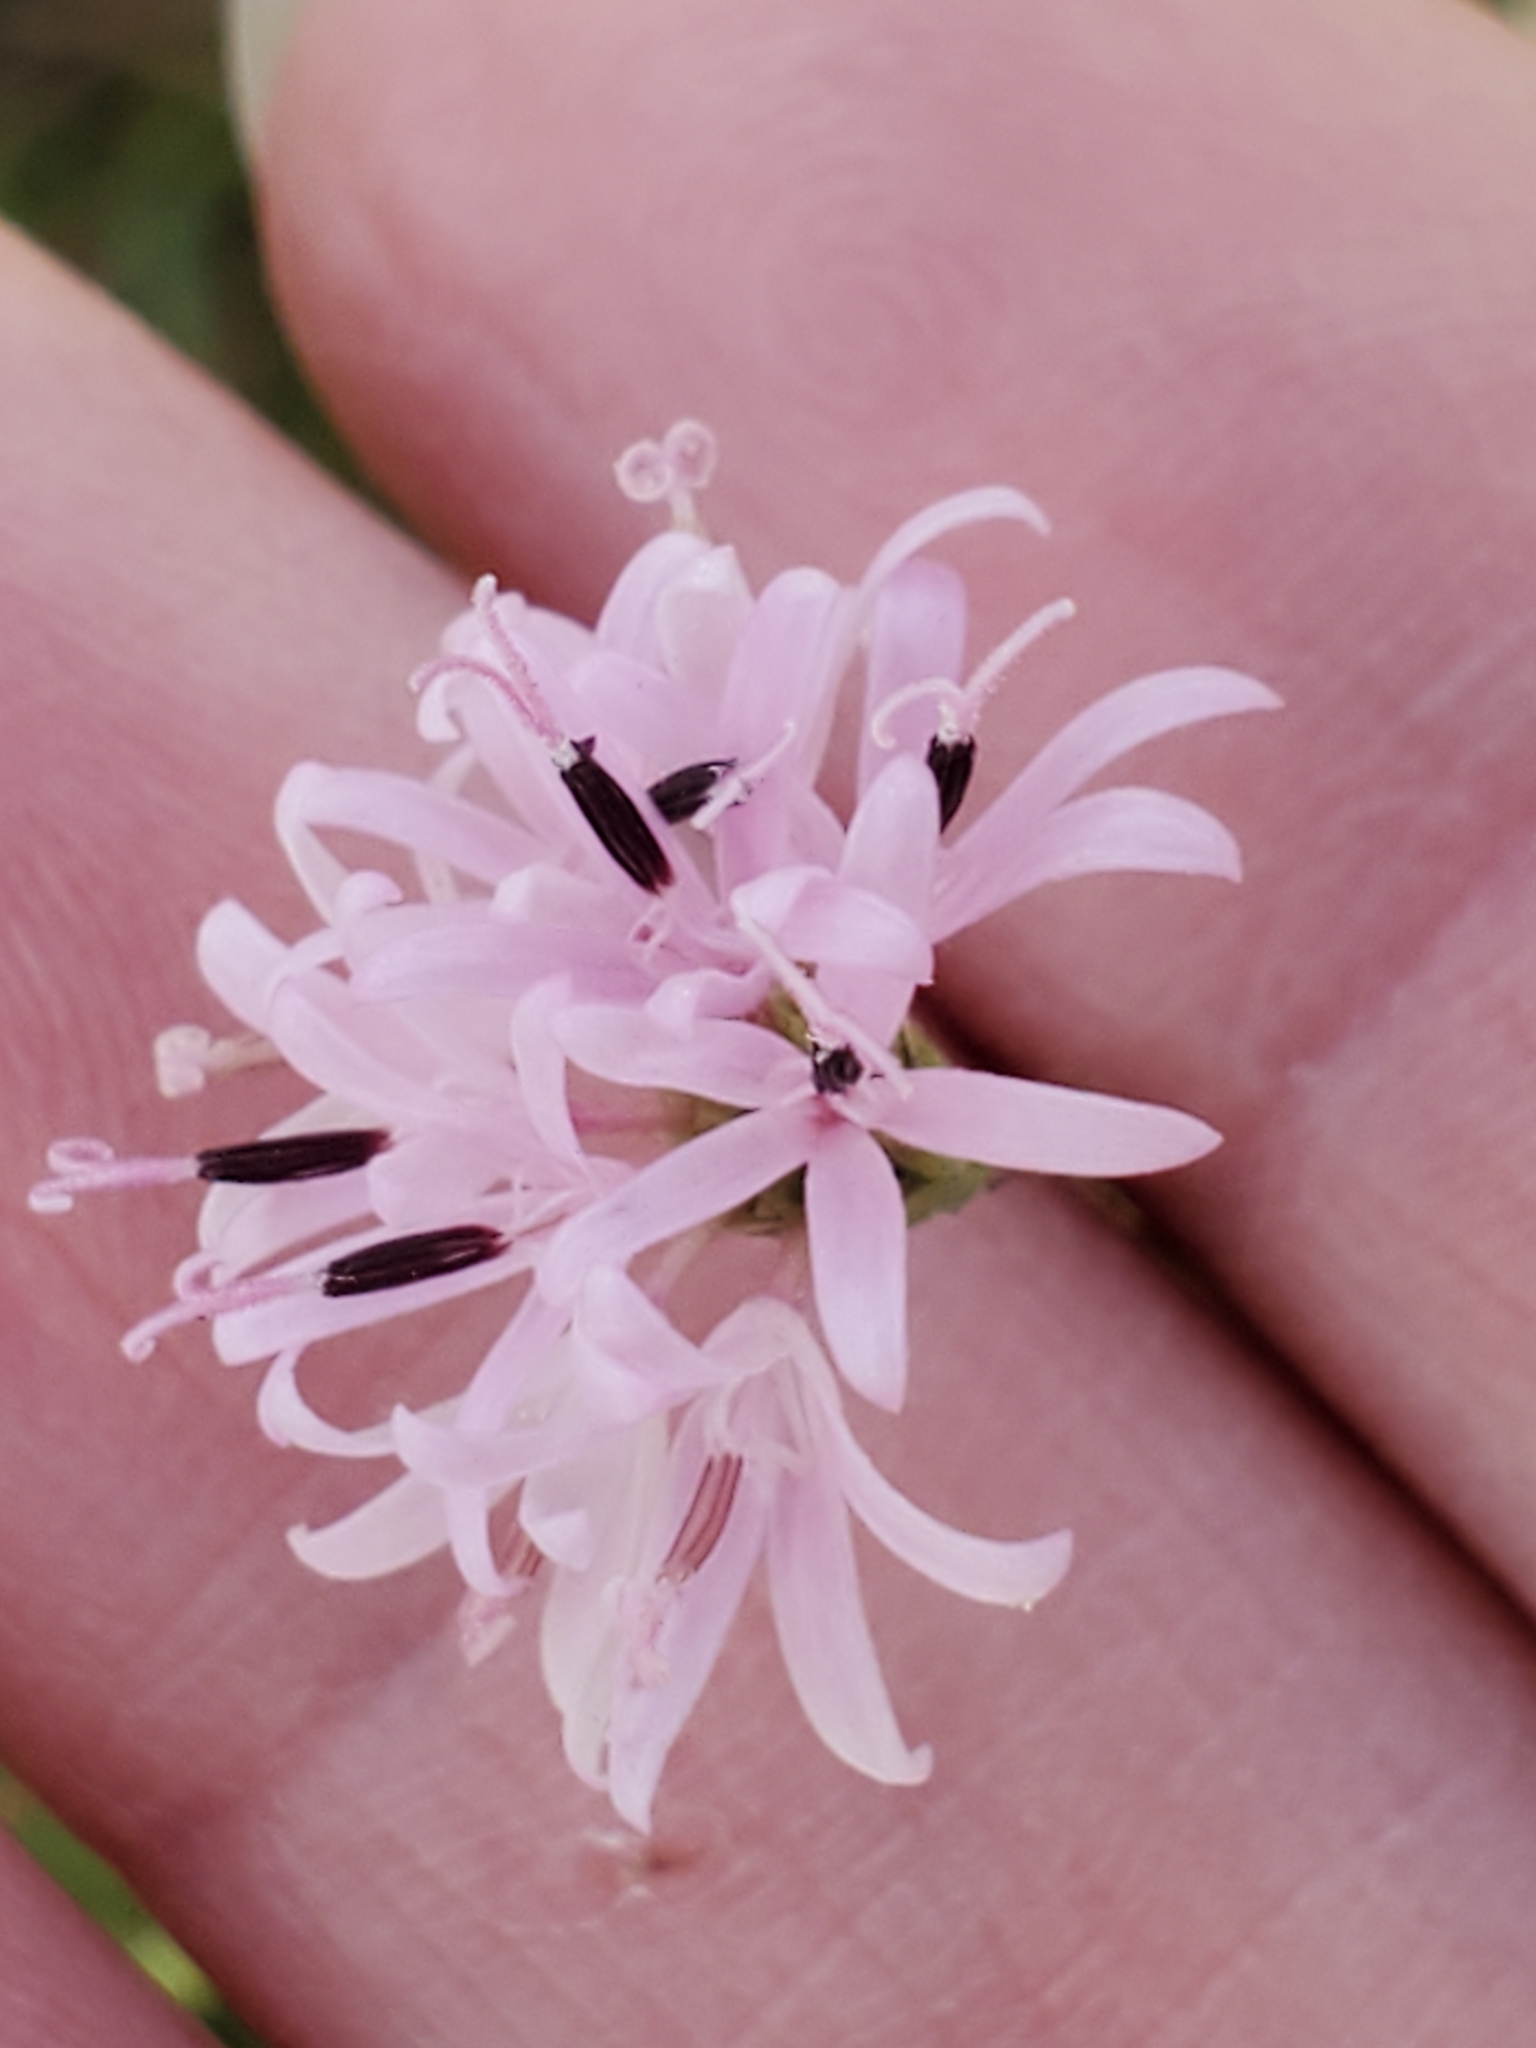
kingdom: Plantae
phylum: Tracheophyta
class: Magnoliopsida
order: Asterales
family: Asteraceae
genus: Palafoxia
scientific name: Palafoxia callosa
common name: Small palafox
